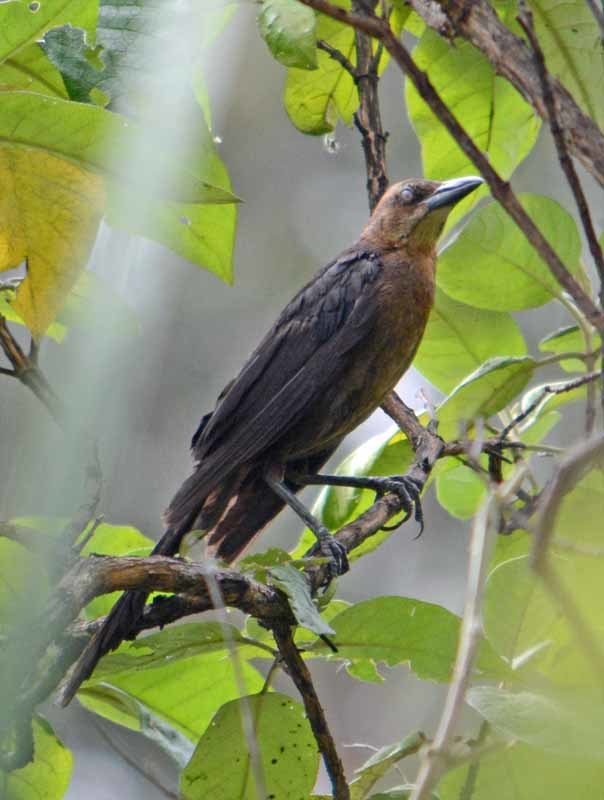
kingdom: Animalia
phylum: Chordata
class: Aves
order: Passeriformes
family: Icteridae
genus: Quiscalus
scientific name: Quiscalus mexicanus
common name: Great-tailed grackle
